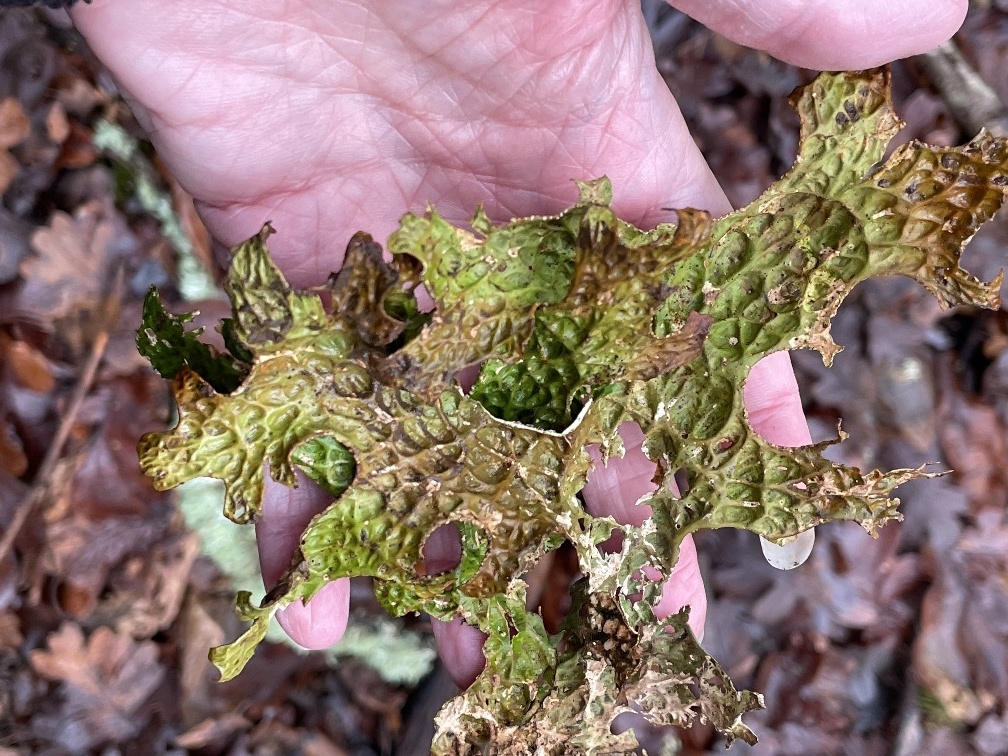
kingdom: Fungi
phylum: Ascomycota
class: Lecanoromycetes
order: Peltigerales
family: Lobariaceae
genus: Lobaria
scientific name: Lobaria pulmonaria
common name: Lungwort
